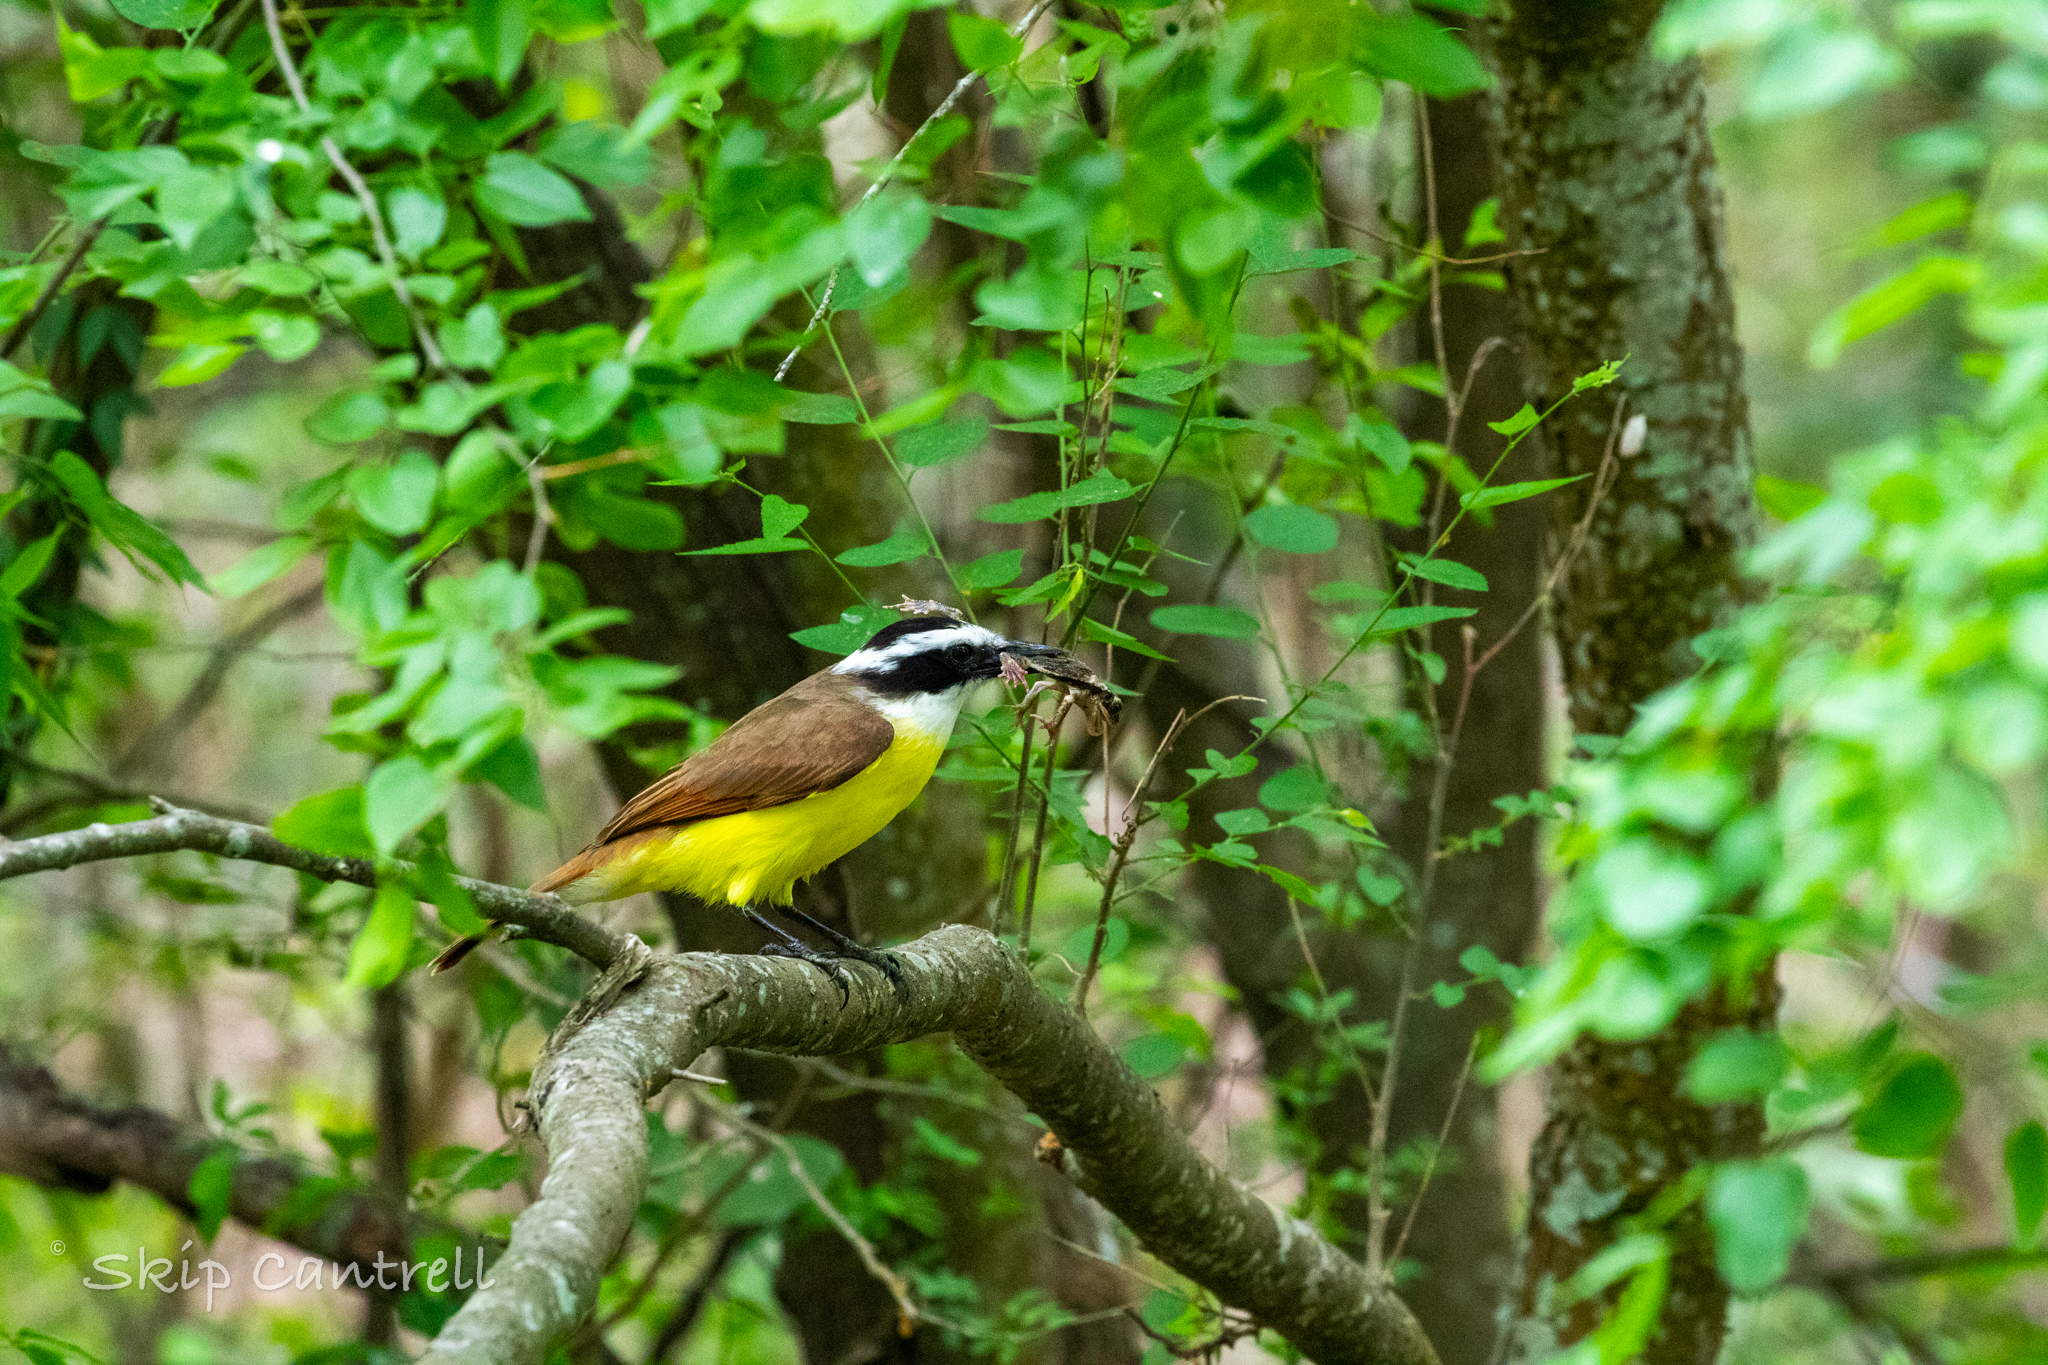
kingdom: Animalia
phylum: Chordata
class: Aves
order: Passeriformes
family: Tyrannidae
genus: Pitangus
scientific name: Pitangus sulphuratus
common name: Great kiskadee
